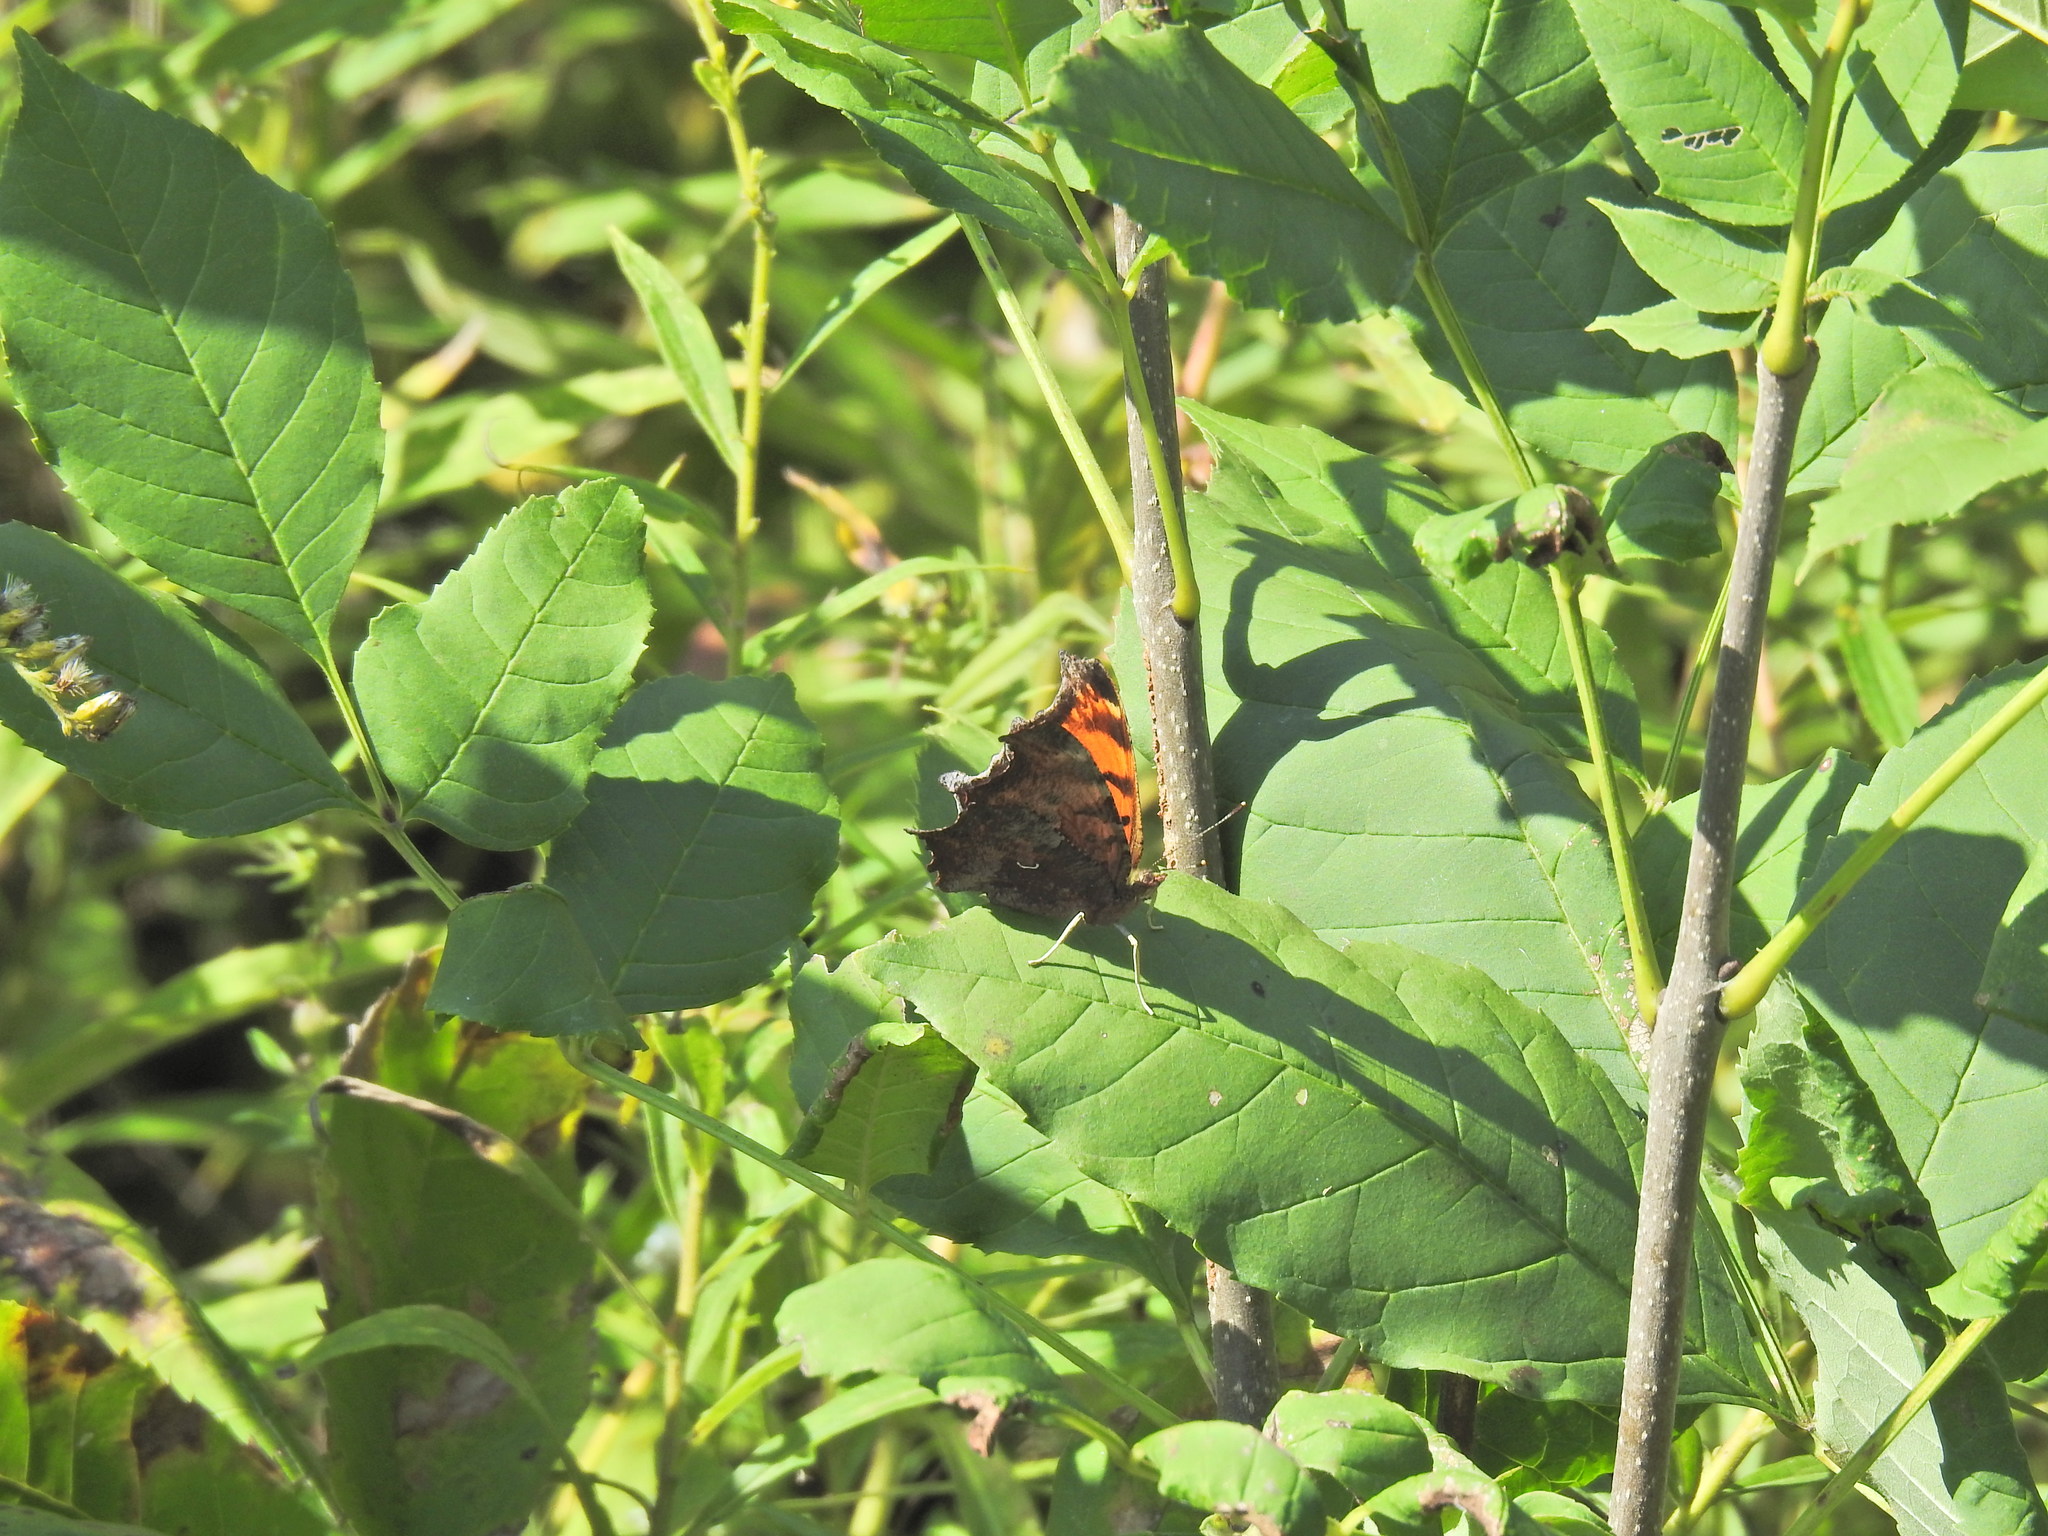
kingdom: Animalia
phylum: Arthropoda
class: Insecta
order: Lepidoptera
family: Nymphalidae
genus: Polygonia
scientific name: Polygonia comma
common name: Eastern comma
